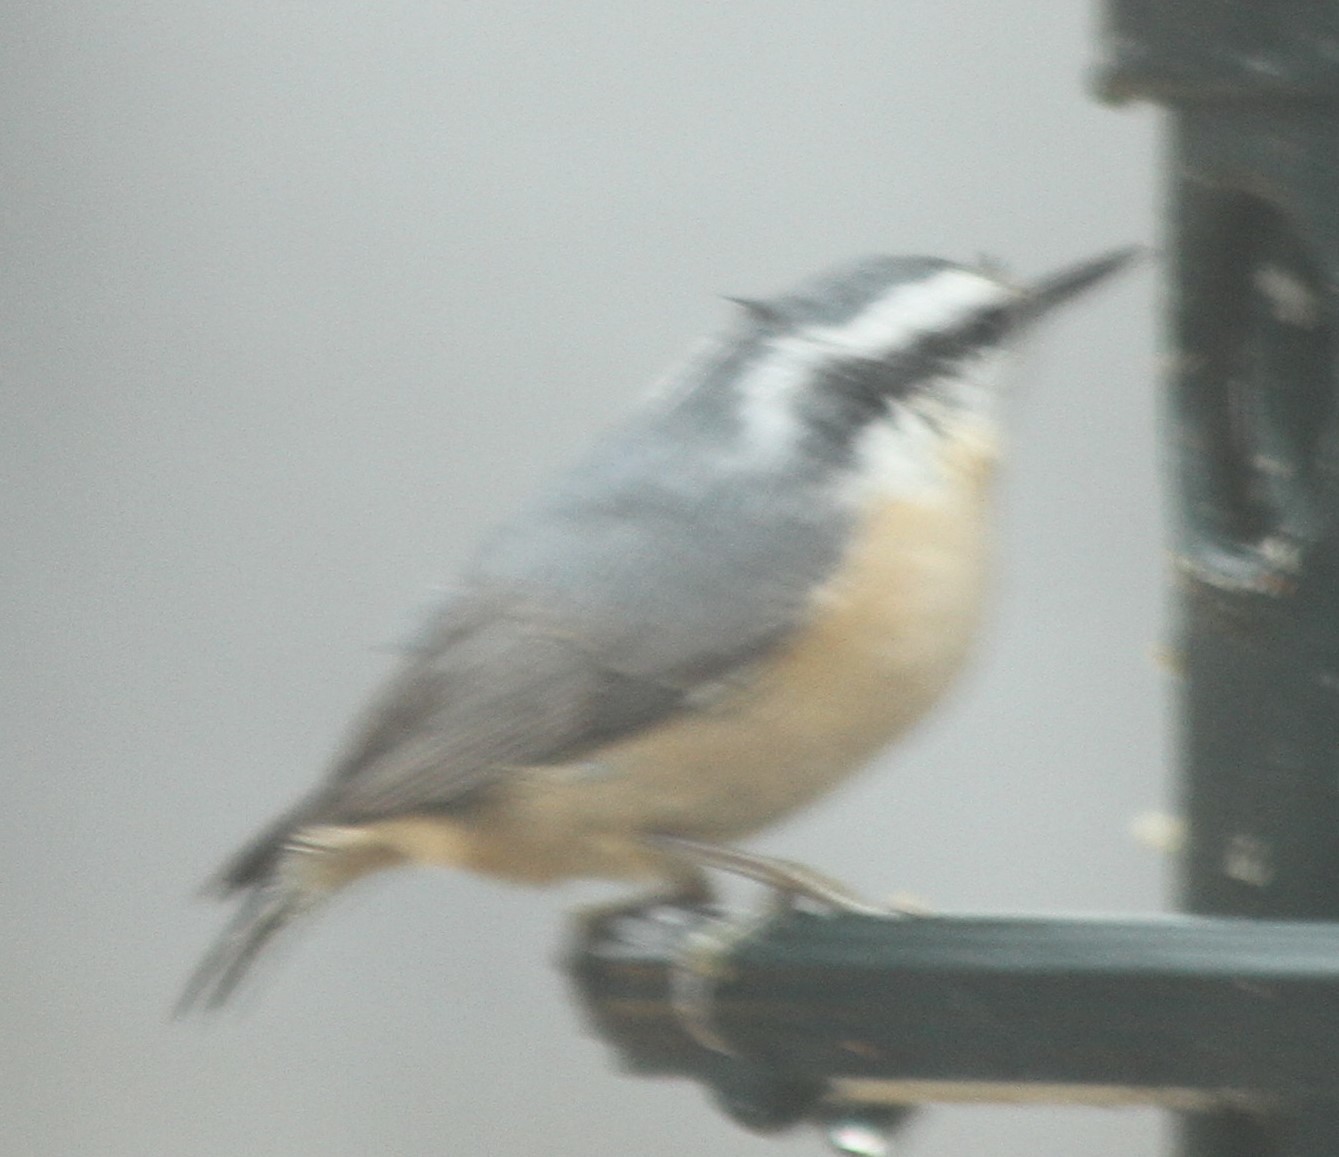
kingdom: Animalia
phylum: Chordata
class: Aves
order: Passeriformes
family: Sittidae
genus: Sitta
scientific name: Sitta canadensis
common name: Red-breasted nuthatch
